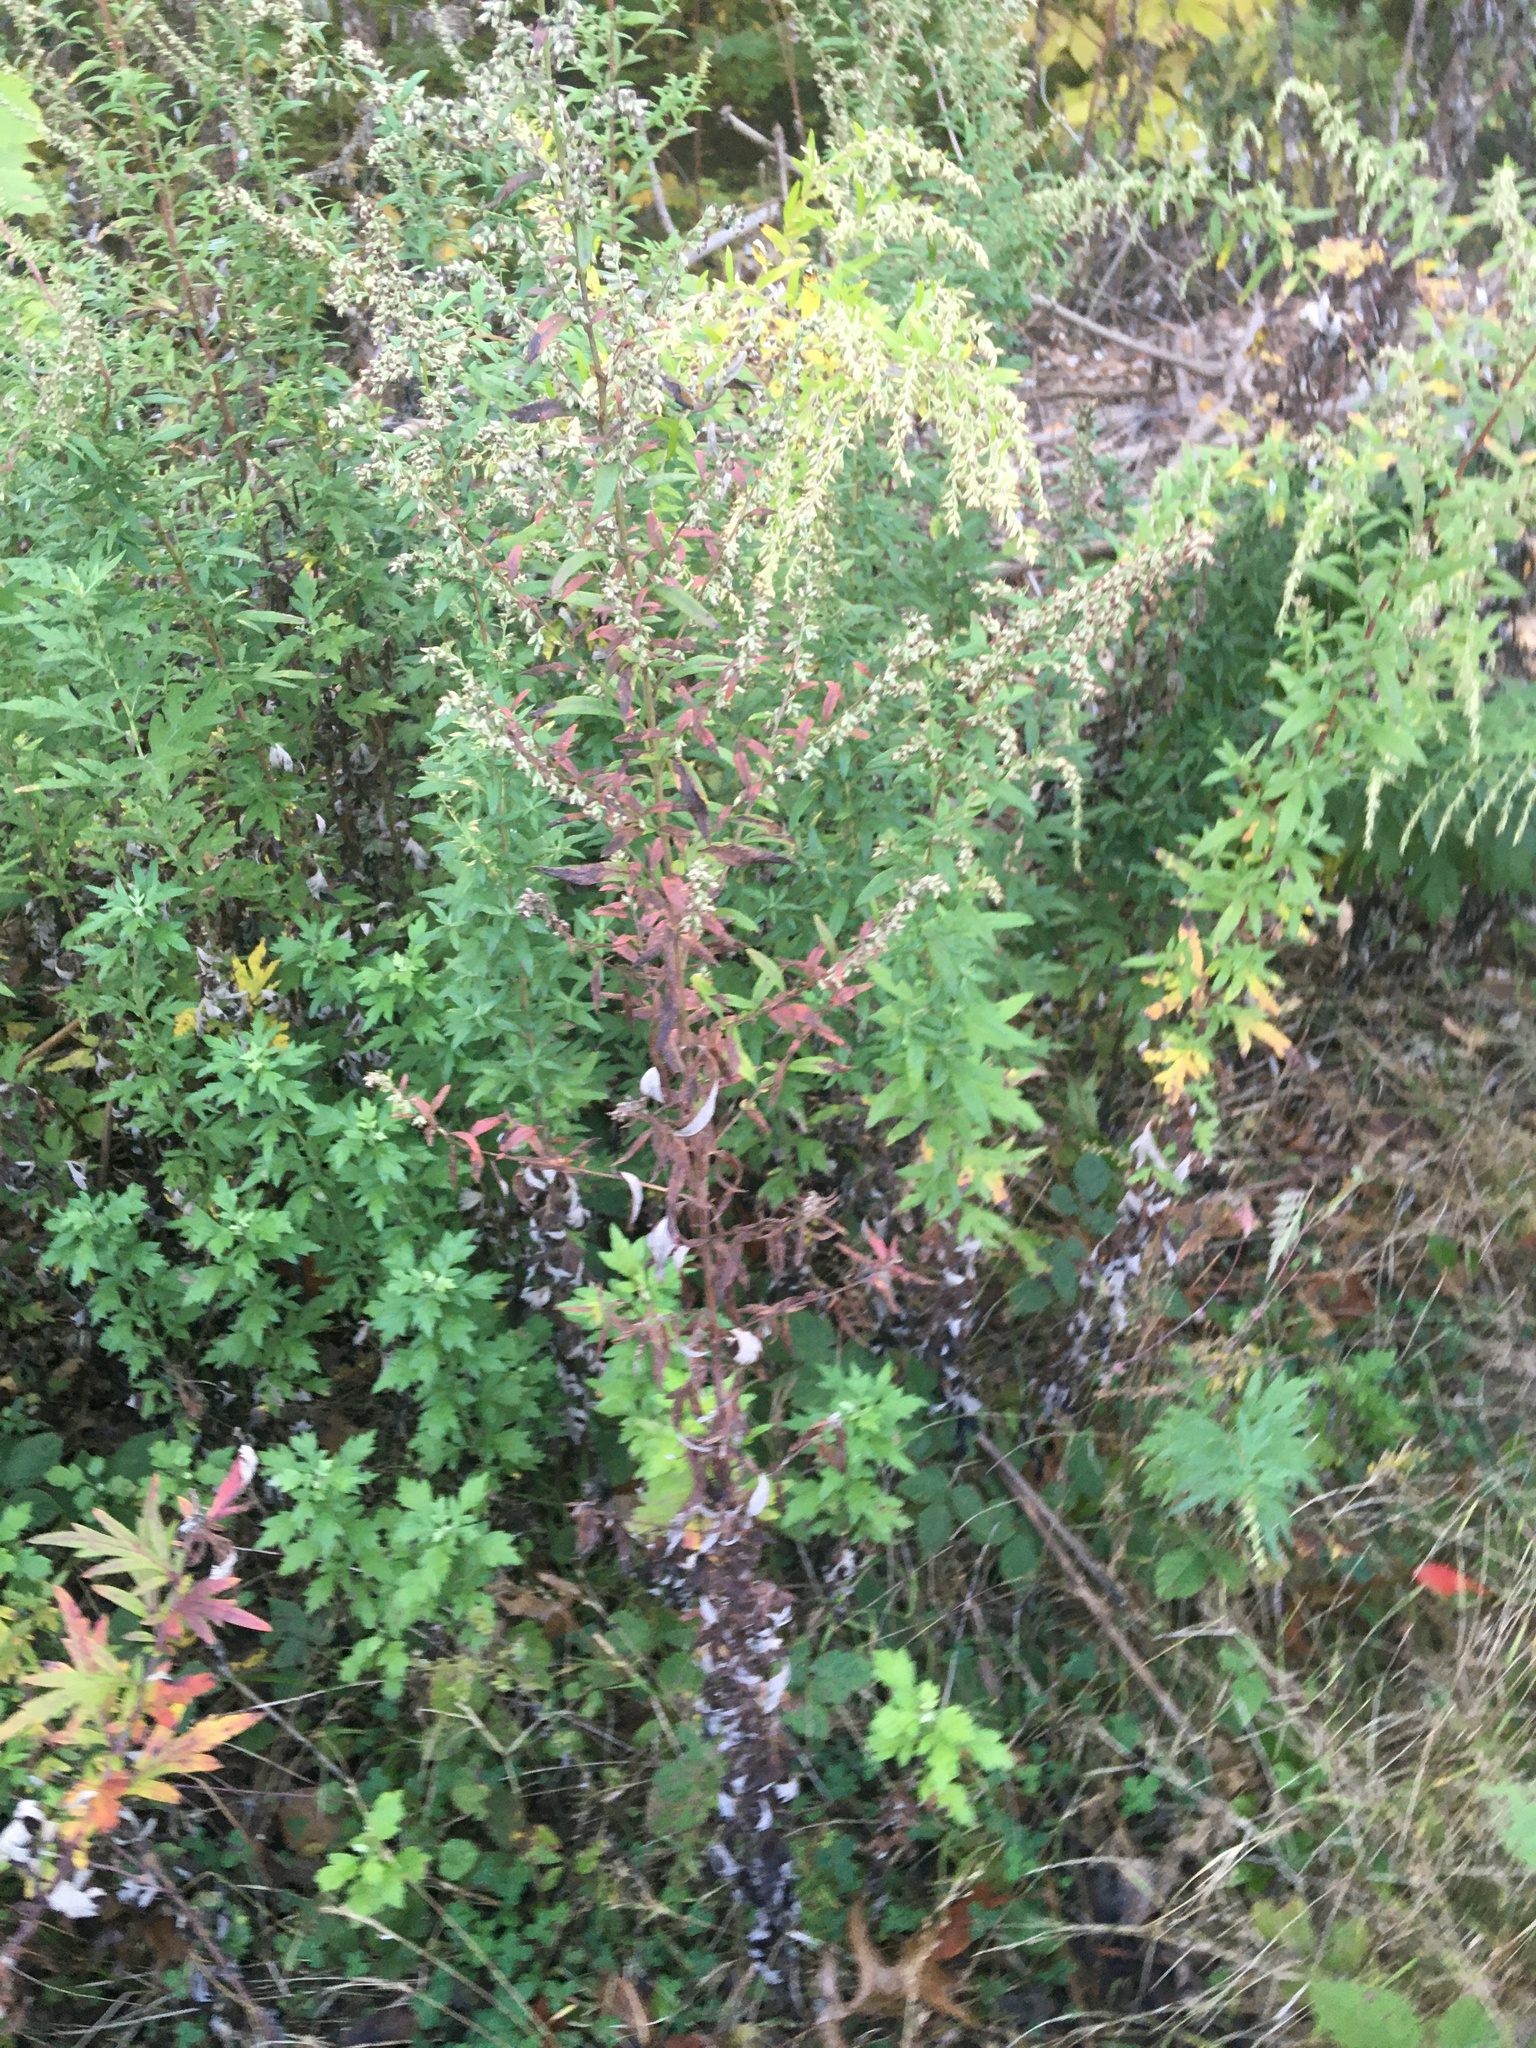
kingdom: Plantae
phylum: Tracheophyta
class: Magnoliopsida
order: Asterales
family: Asteraceae
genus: Artemisia
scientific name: Artemisia vulgaris
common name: Mugwort
